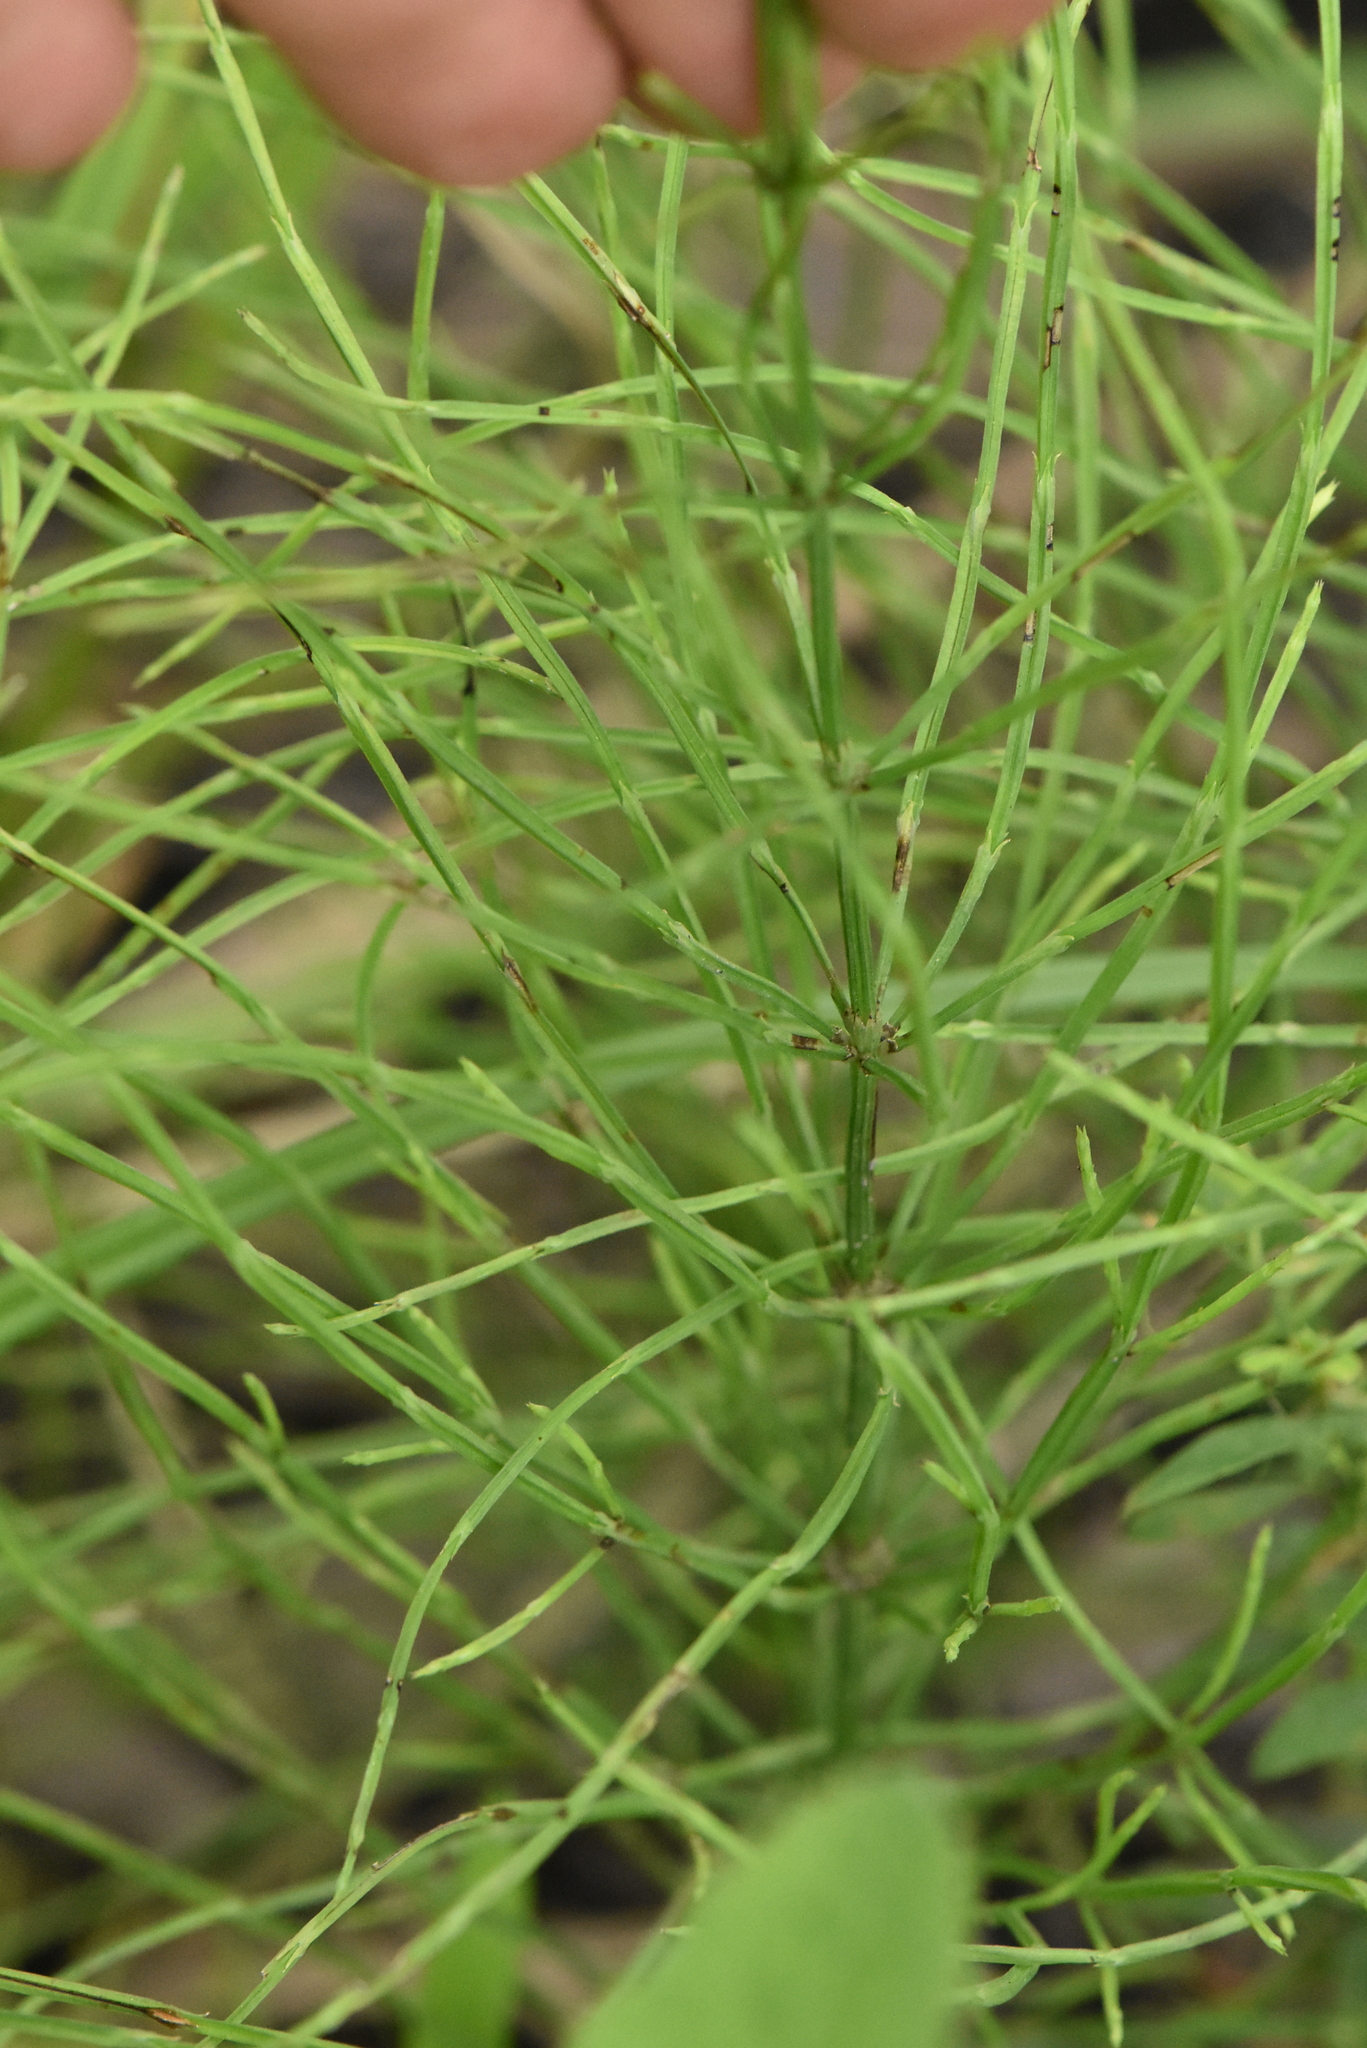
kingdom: Plantae
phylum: Tracheophyta
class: Polypodiopsida
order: Equisetales
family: Equisetaceae
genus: Equisetum
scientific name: Equisetum arvense
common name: Field horsetail
